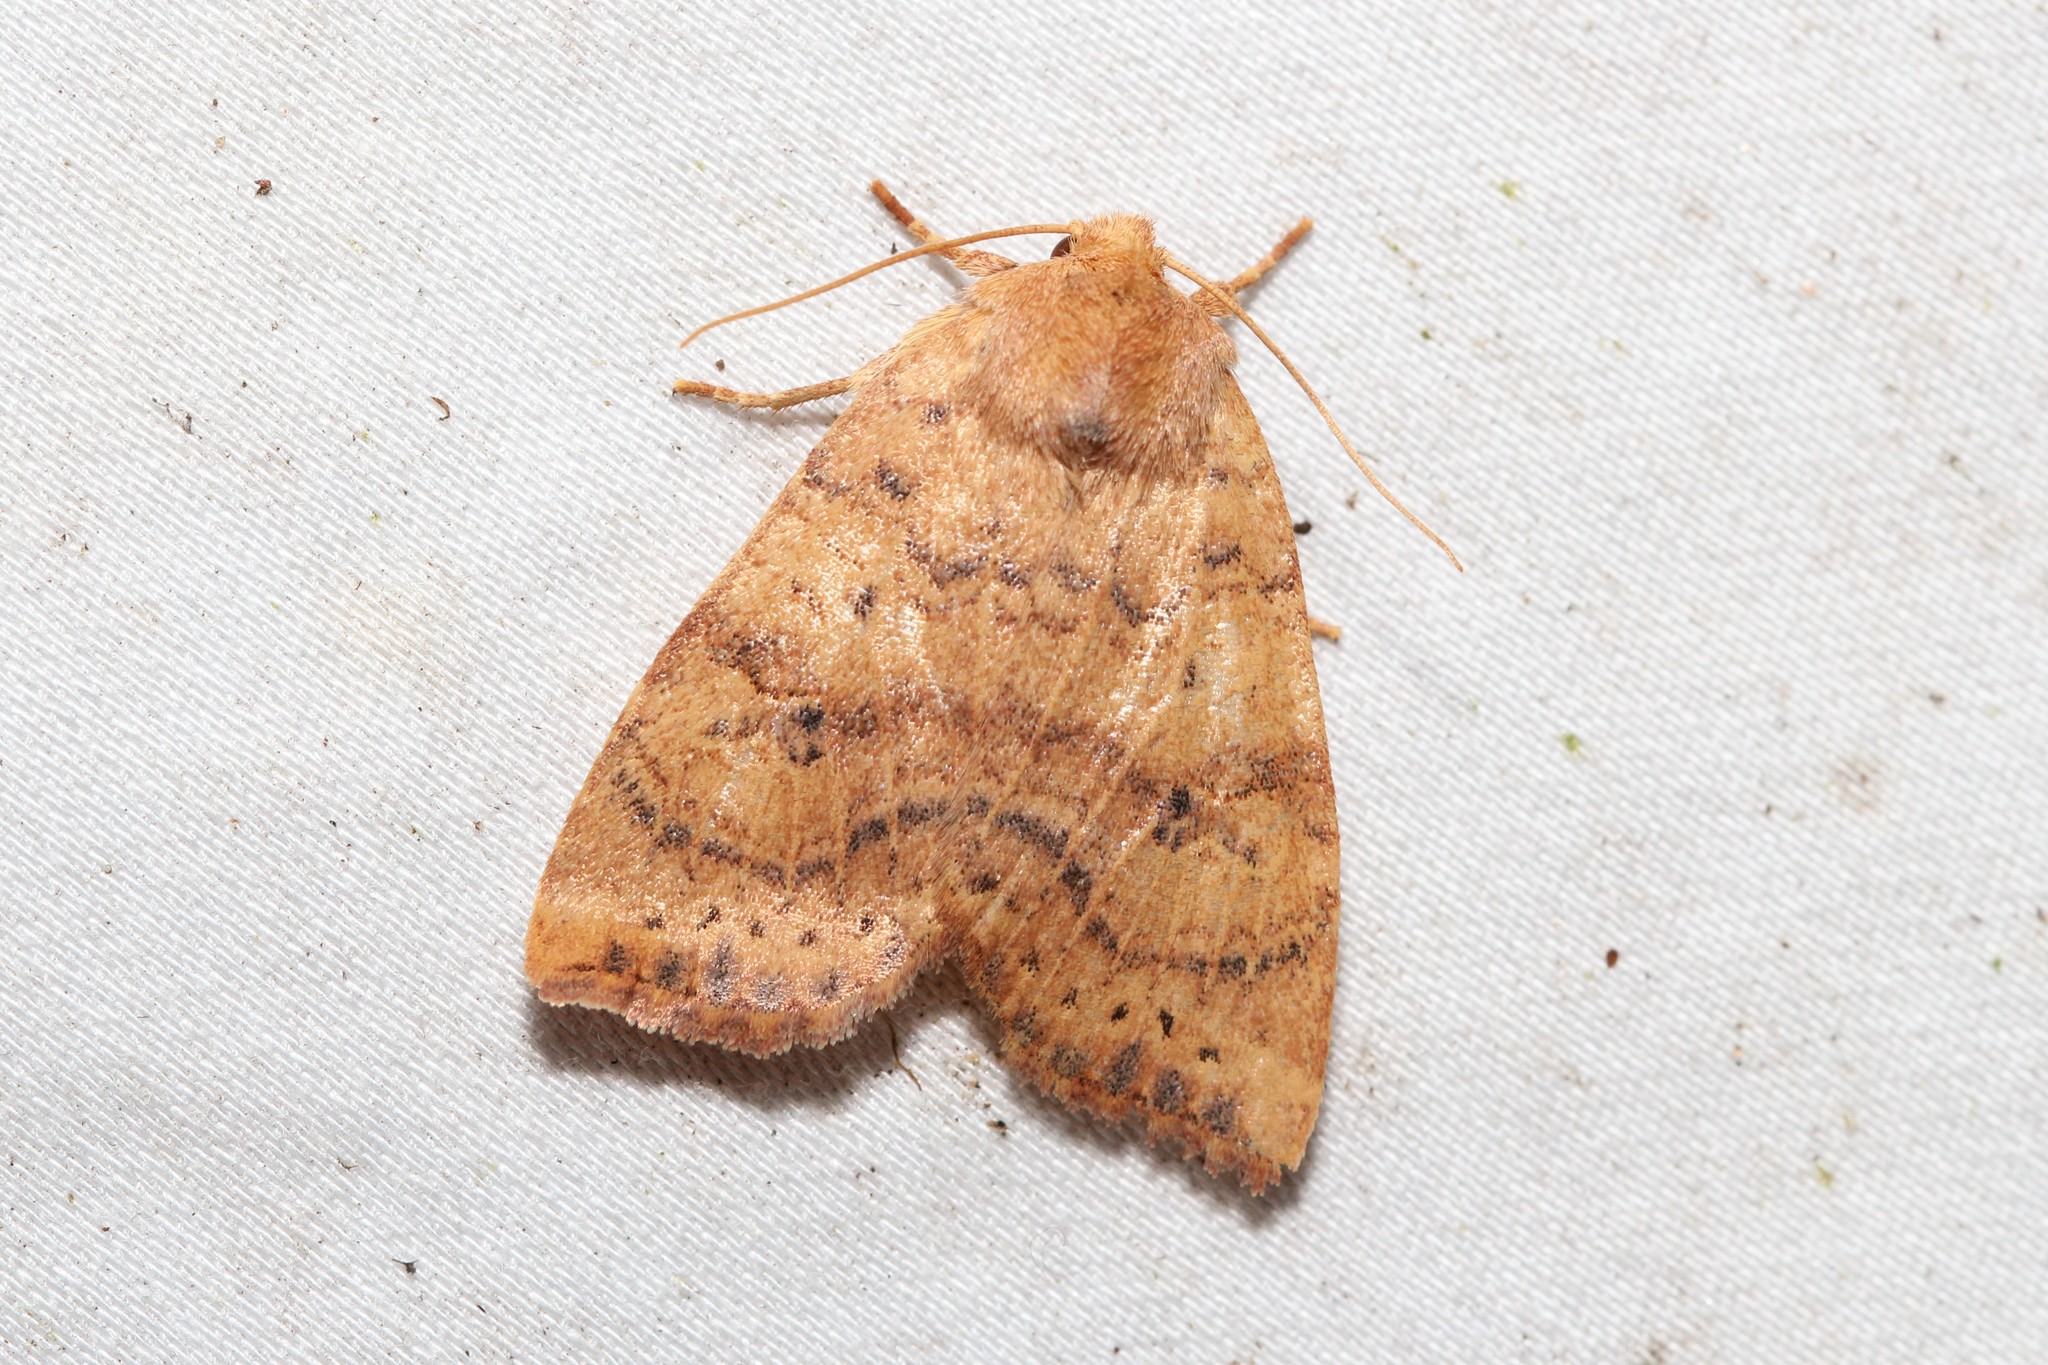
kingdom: Animalia
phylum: Arthropoda
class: Insecta
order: Lepidoptera
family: Noctuidae
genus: Anathix
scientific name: Anathix ralla
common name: Dotted sallow
